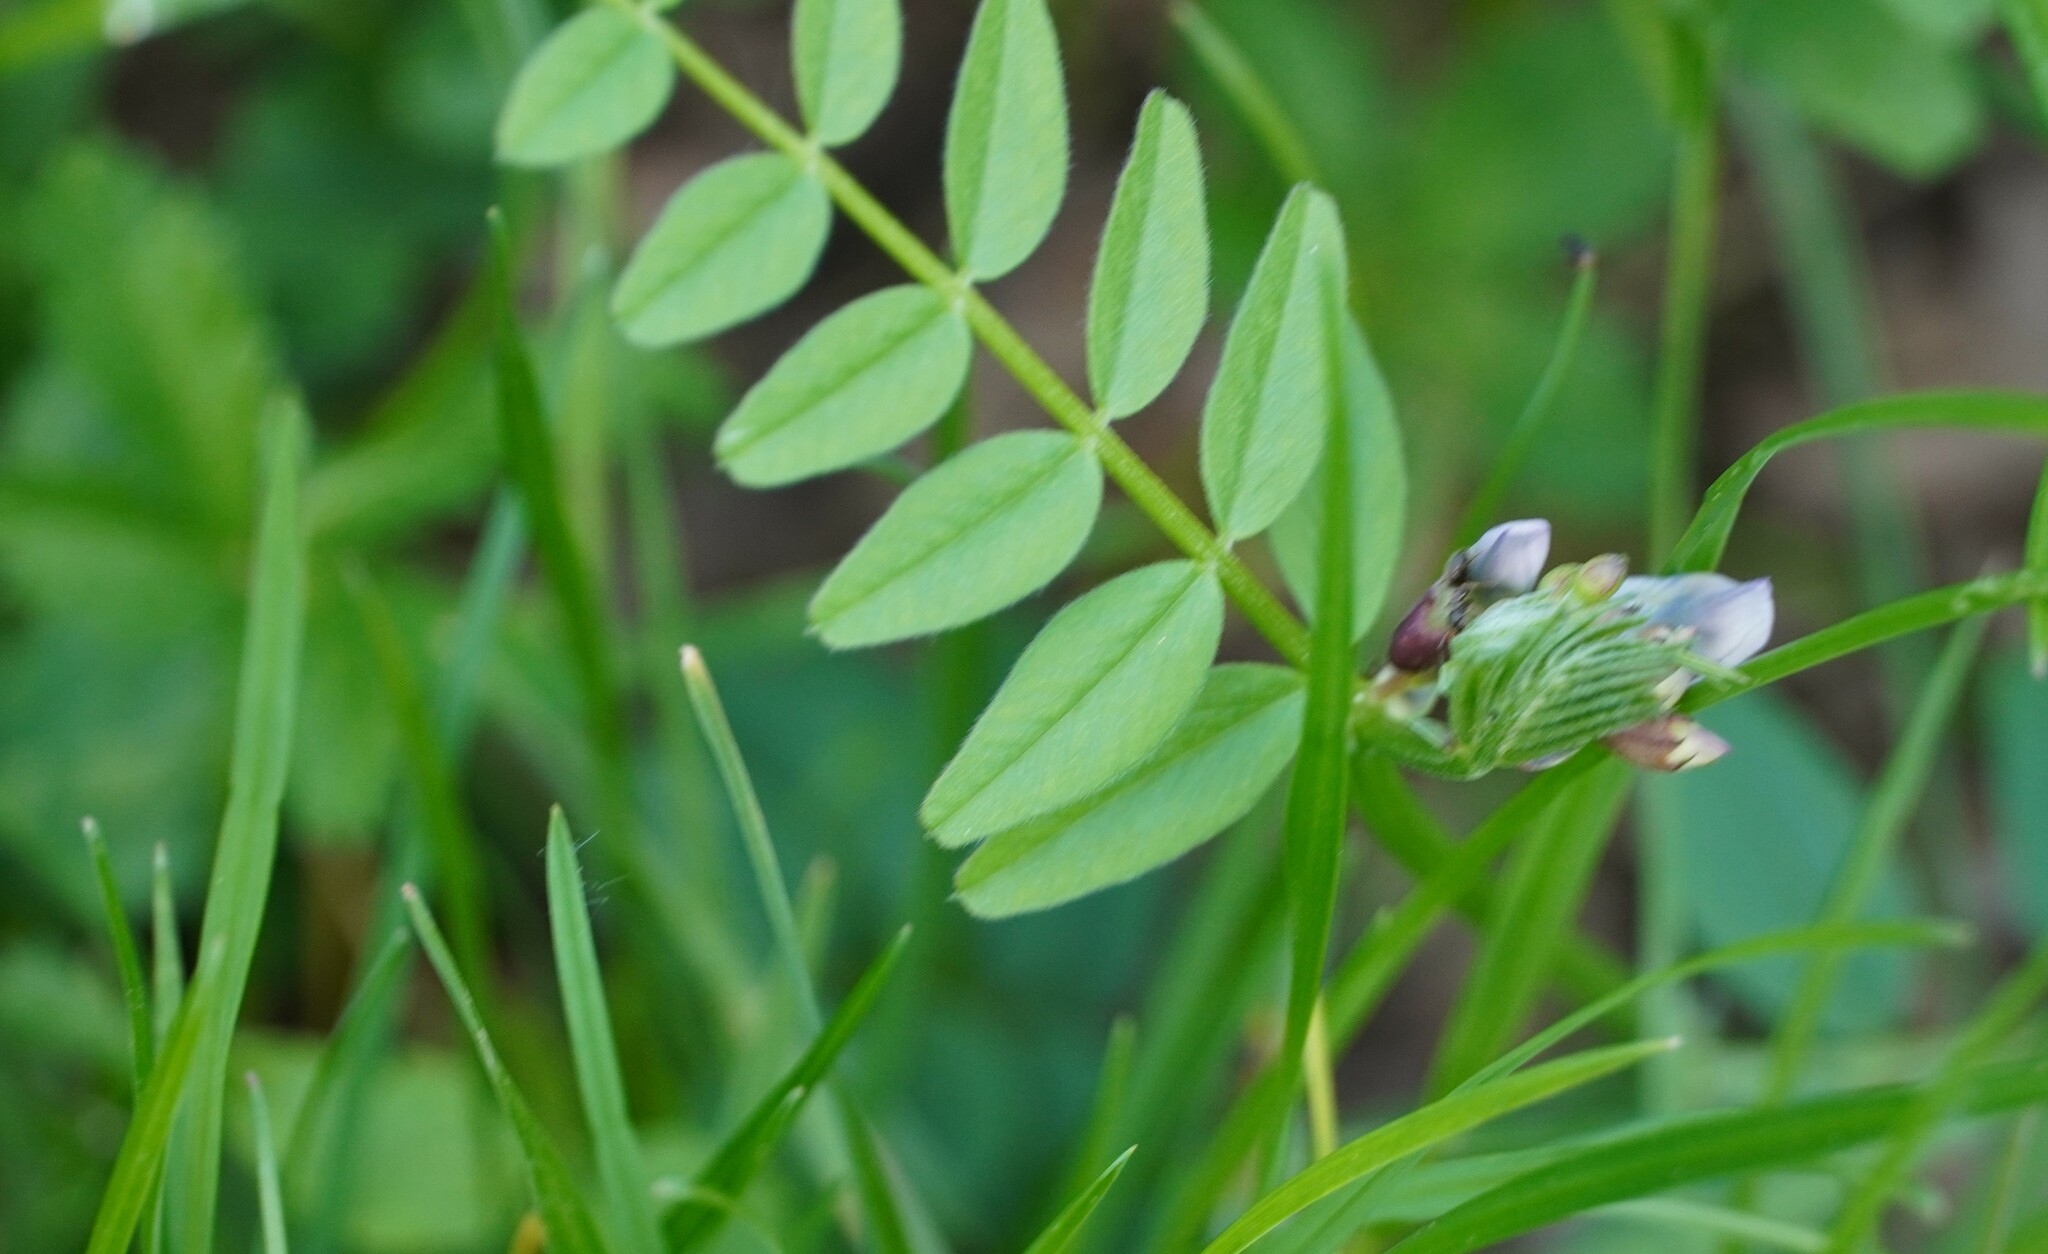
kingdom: Plantae
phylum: Tracheophyta
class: Magnoliopsida
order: Fabales
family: Fabaceae
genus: Vicia
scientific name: Vicia sepium
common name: Bush vetch
